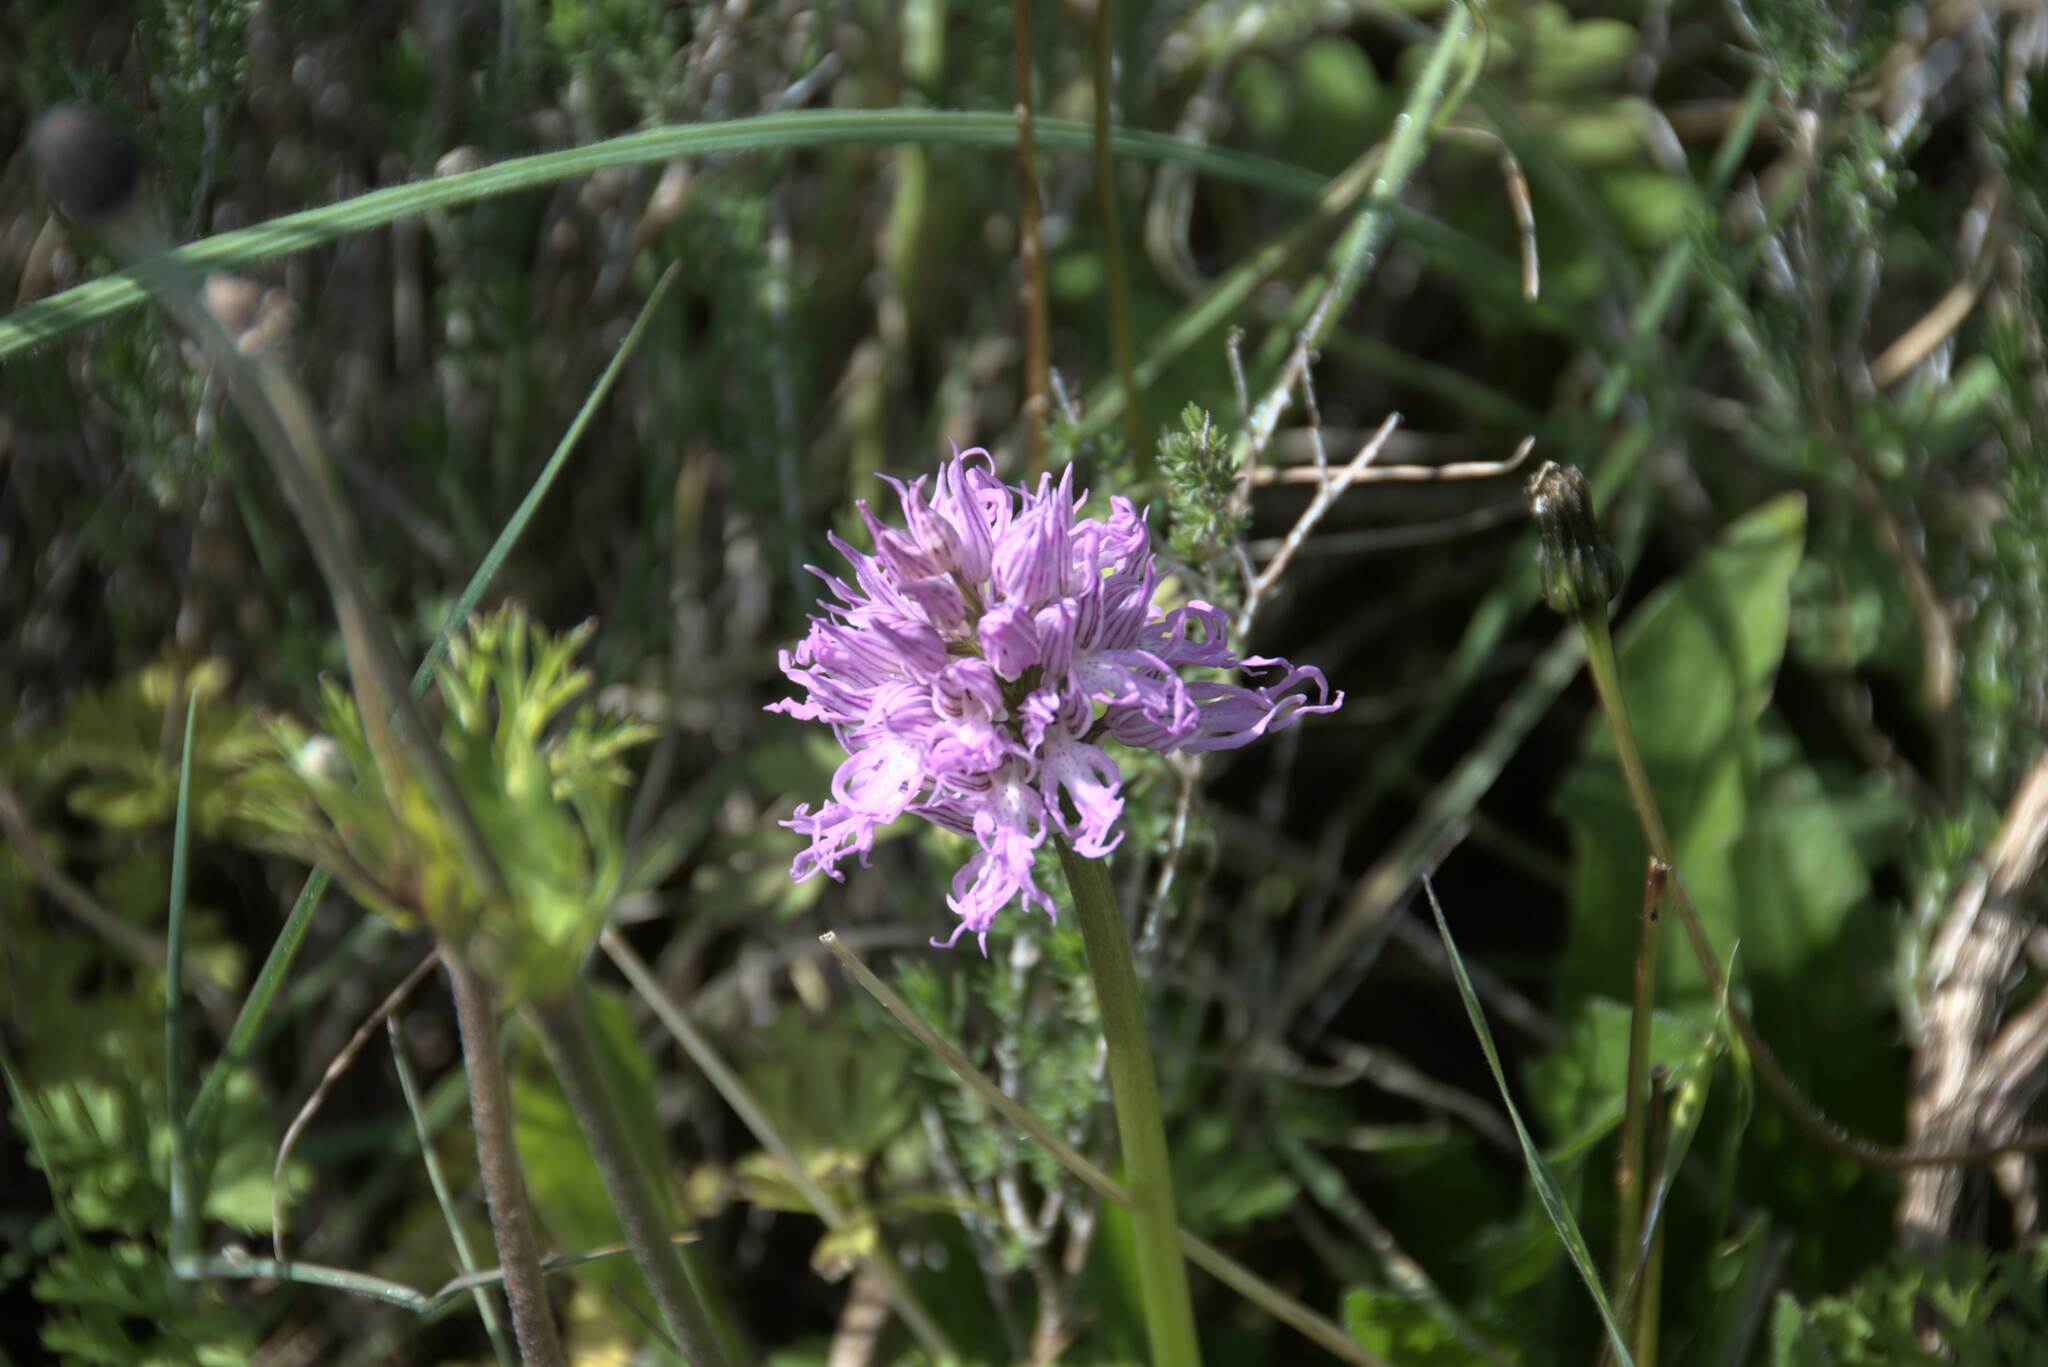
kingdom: Plantae
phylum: Tracheophyta
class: Liliopsida
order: Asparagales
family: Orchidaceae
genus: Orchis
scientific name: Orchis italica
